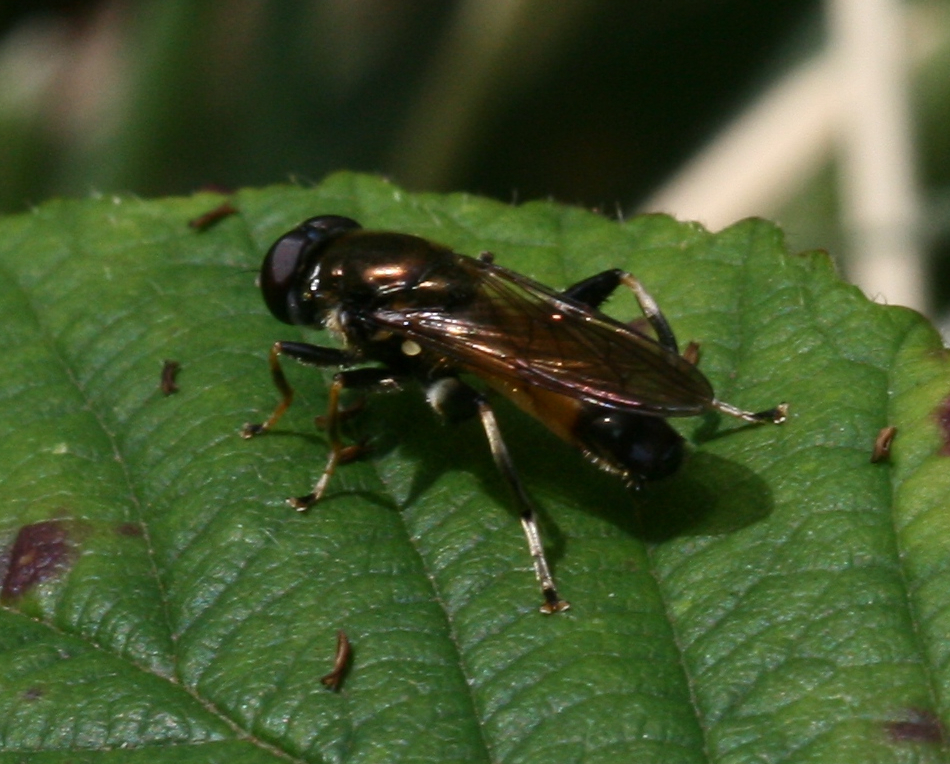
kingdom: Animalia
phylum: Arthropoda
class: Insecta
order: Diptera
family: Syrphidae
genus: Xylota
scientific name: Xylota segnis
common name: Brown-toed forest fly
